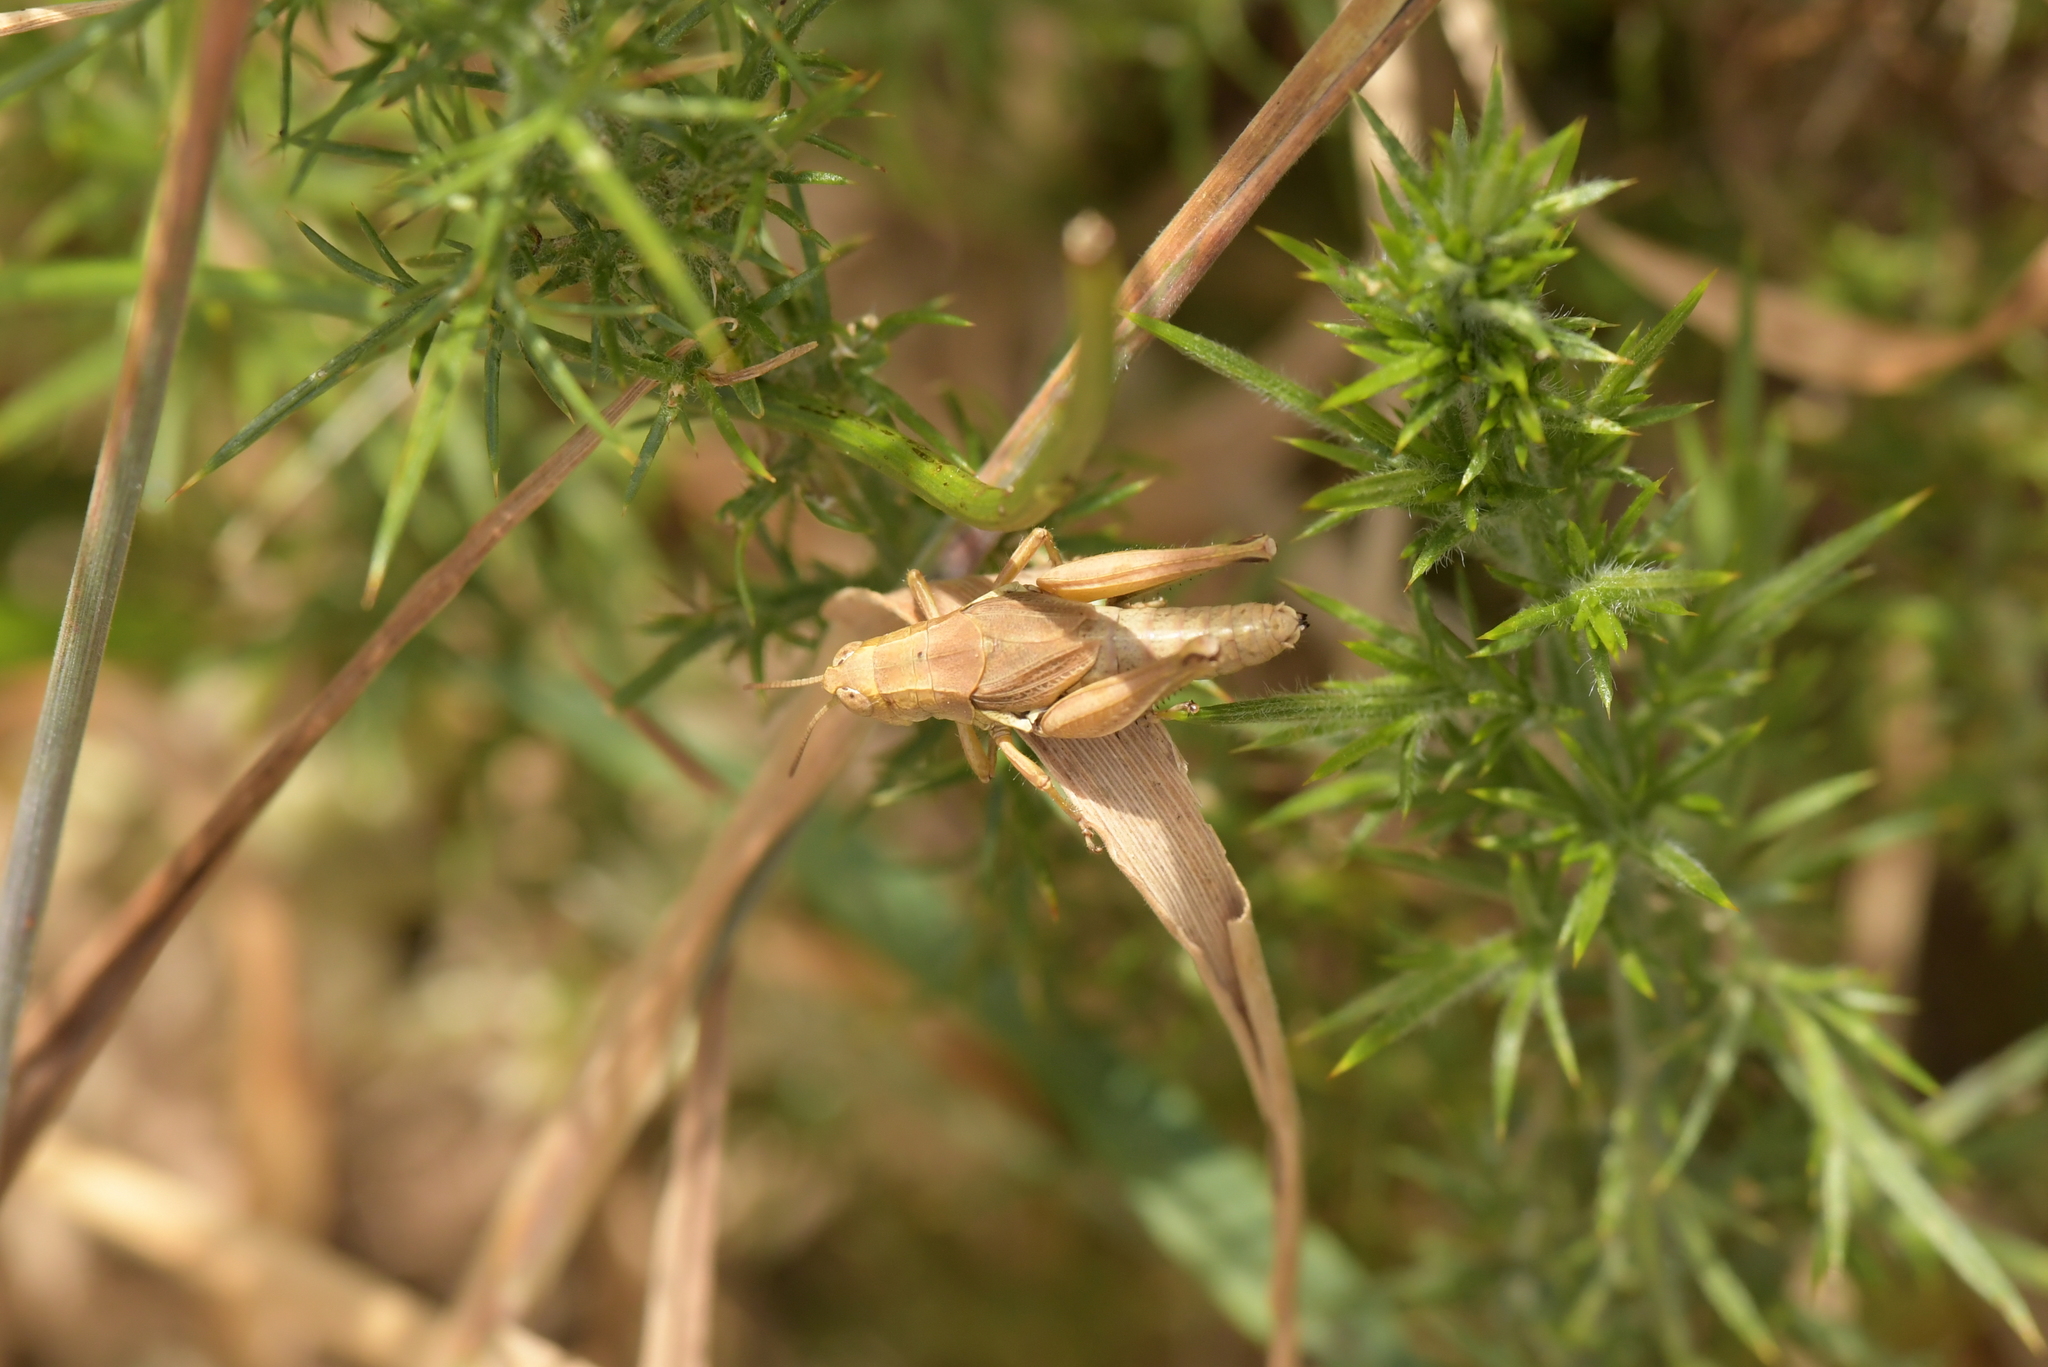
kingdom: Animalia
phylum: Arthropoda
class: Insecta
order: Orthoptera
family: Acrididae
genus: Phaulacridium
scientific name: Phaulacridium marginale
